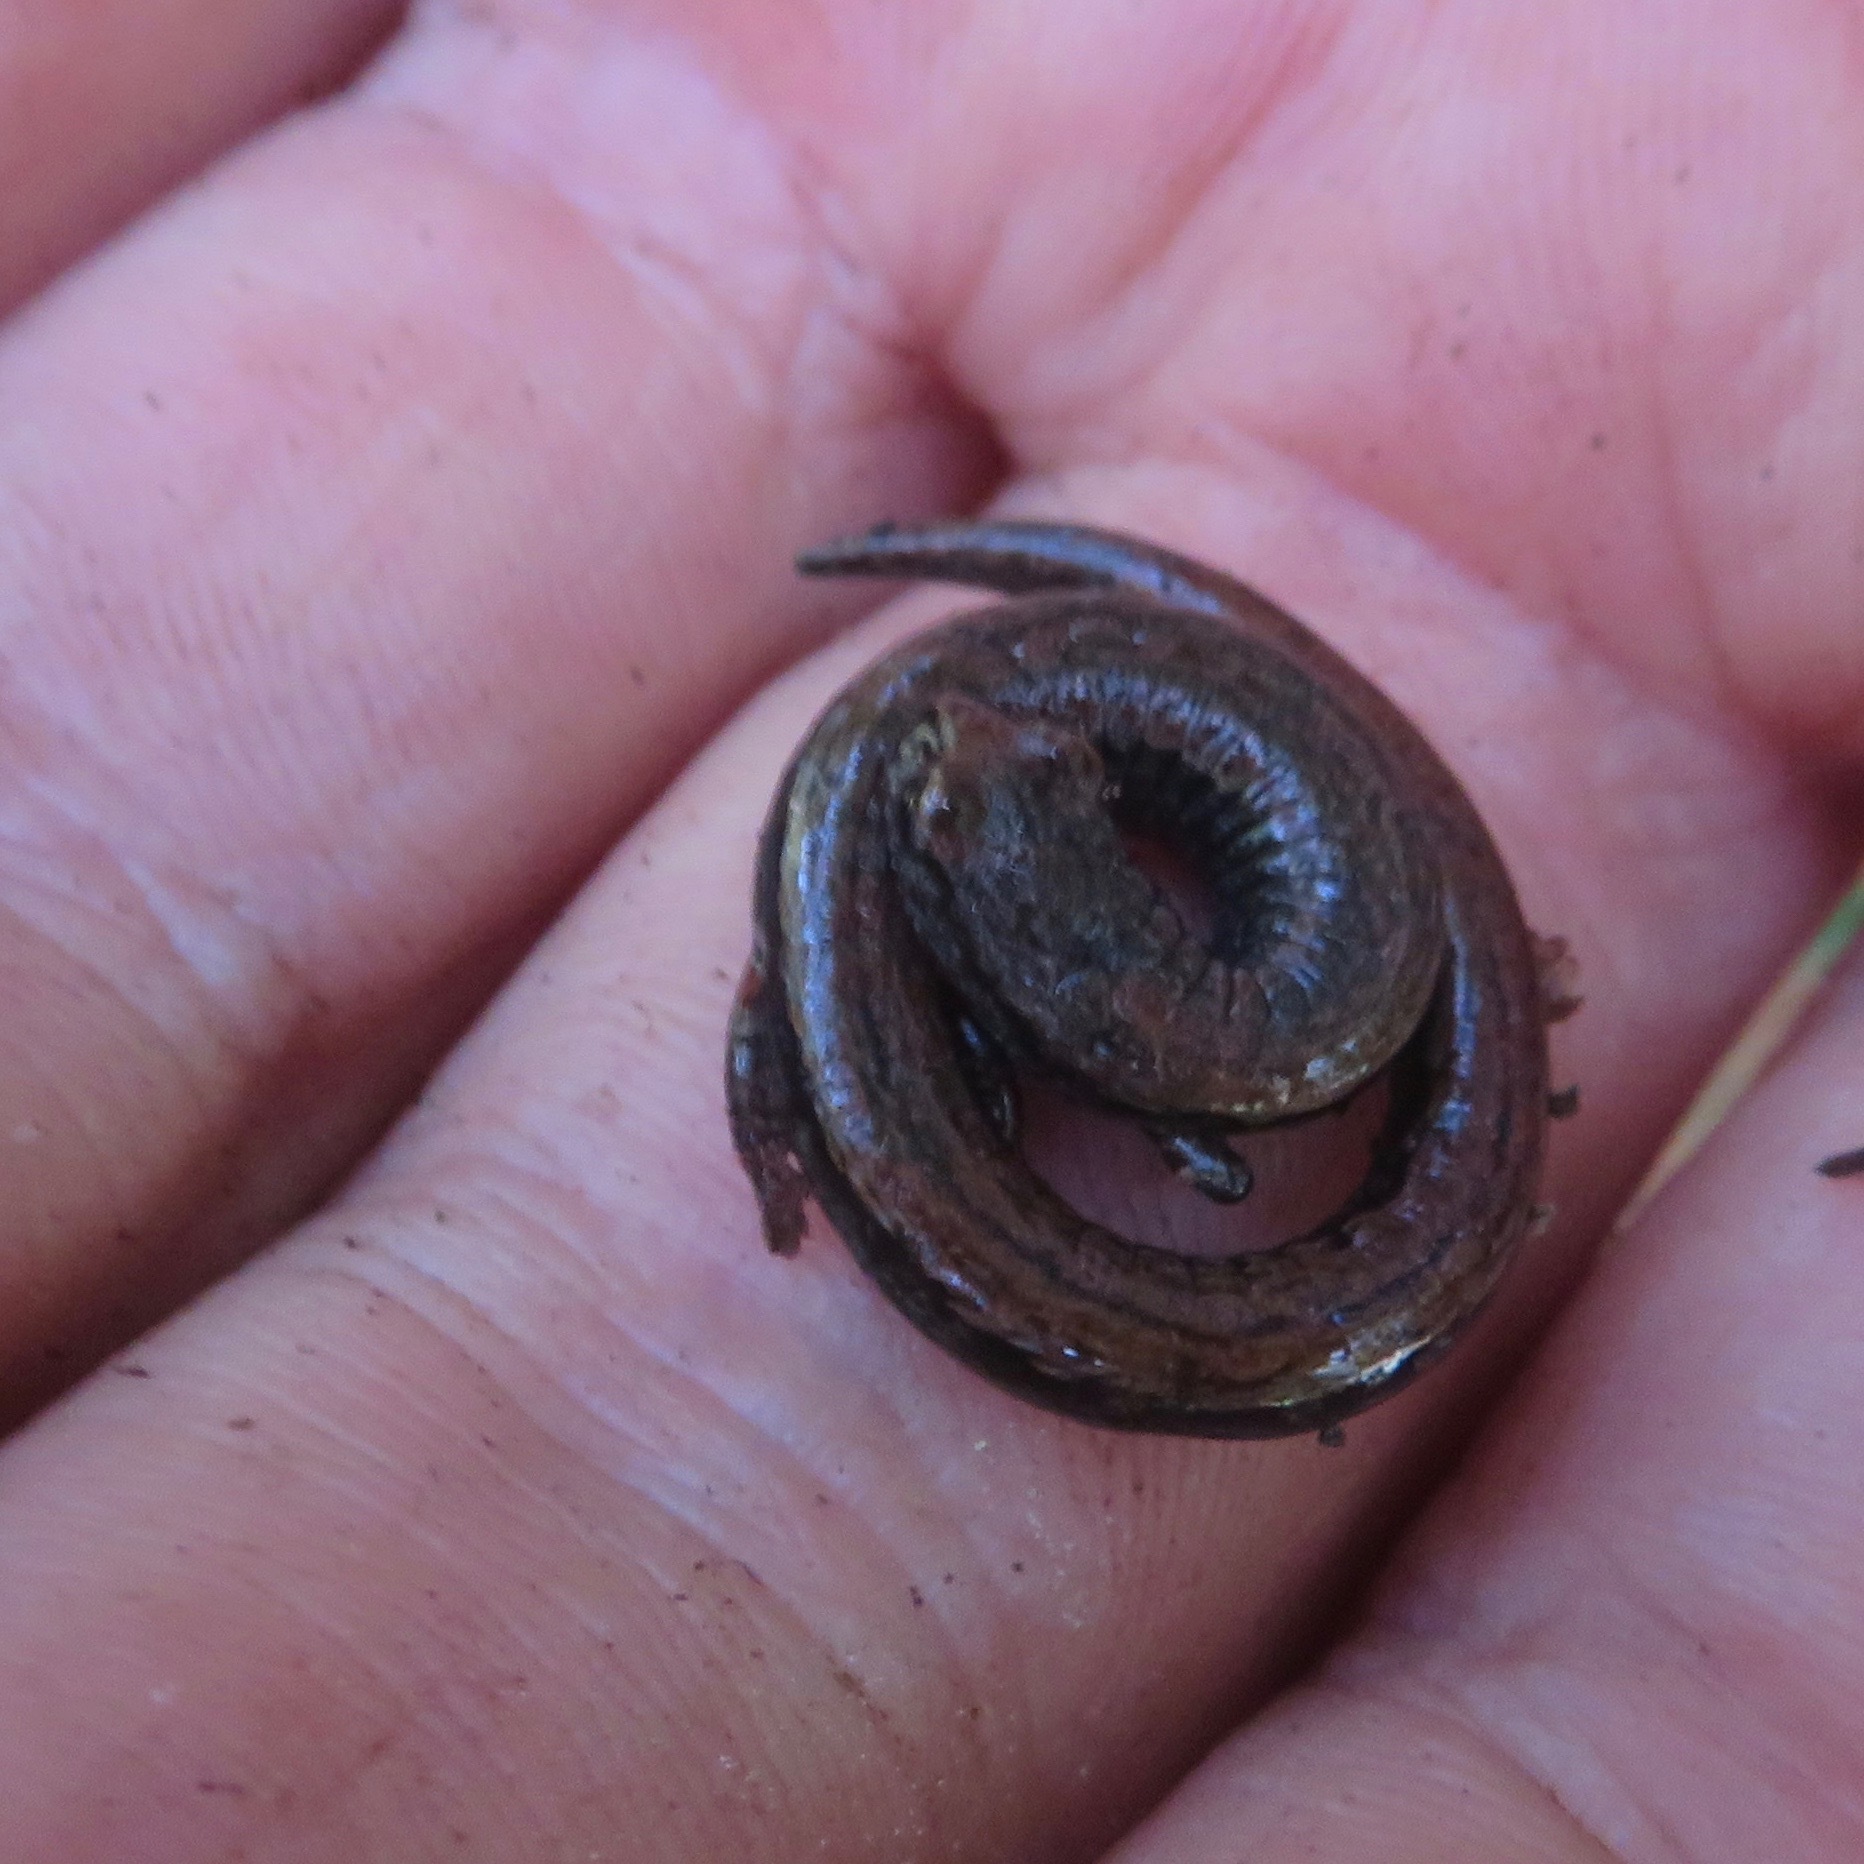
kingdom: Animalia
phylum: Chordata
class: Amphibia
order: Caudata
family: Plethodontidae
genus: Batrachoseps
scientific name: Batrachoseps attenuatus
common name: California slender salamander
